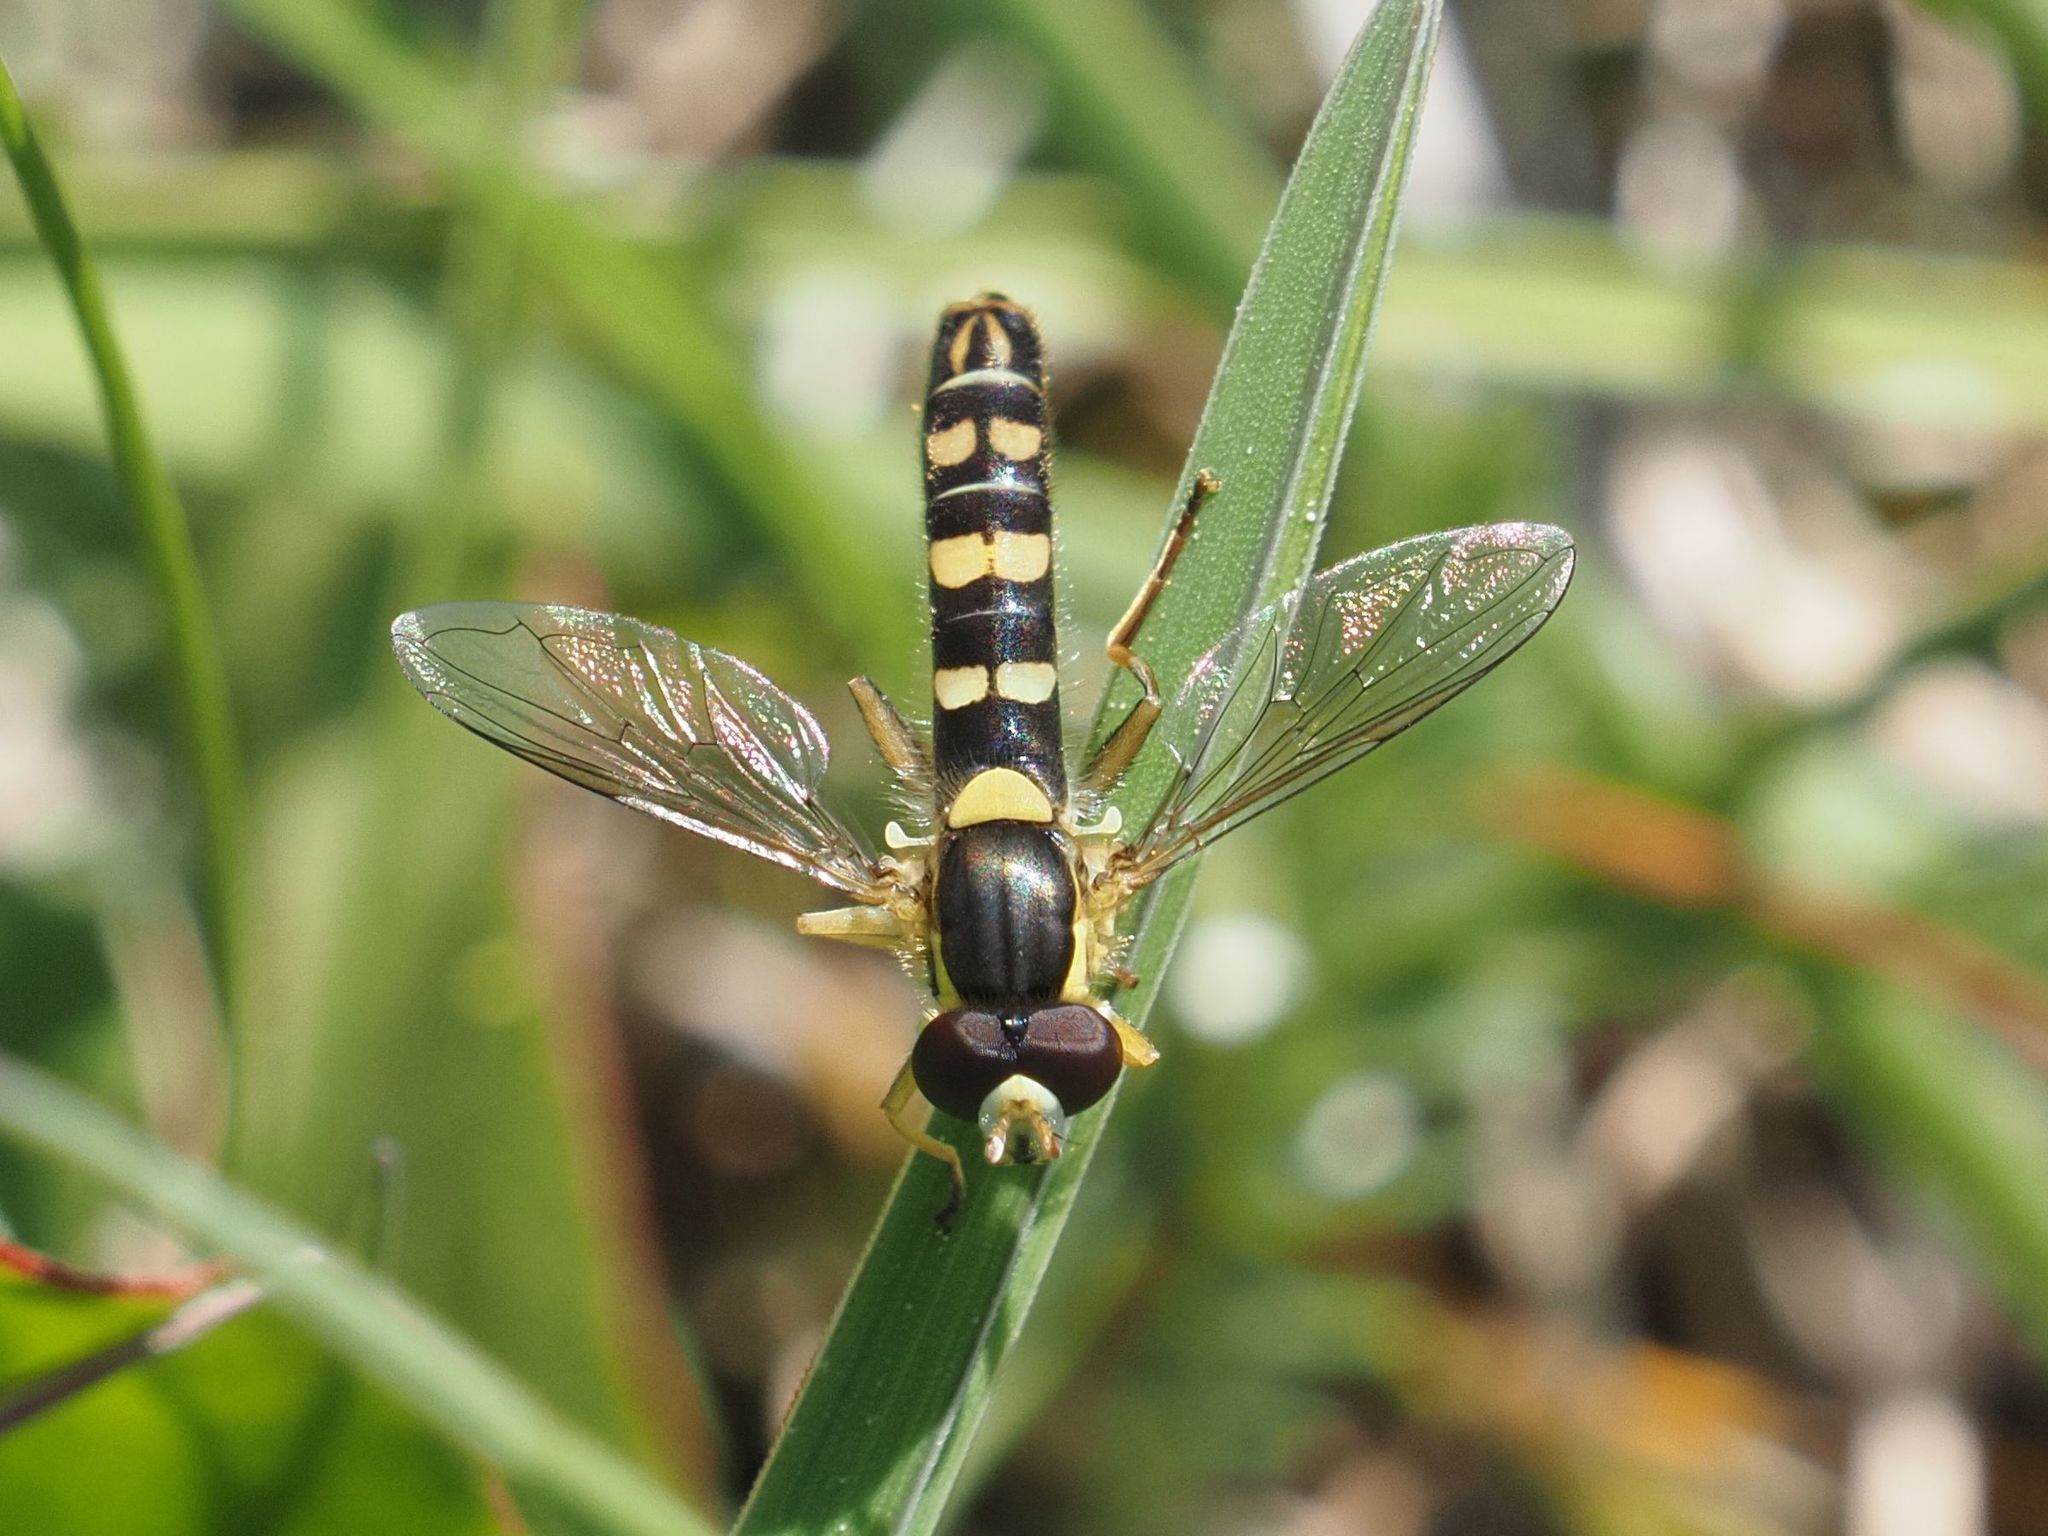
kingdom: Animalia
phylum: Arthropoda
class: Insecta
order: Diptera
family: Syrphidae
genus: Sphaerophoria
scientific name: Sphaerophoria
